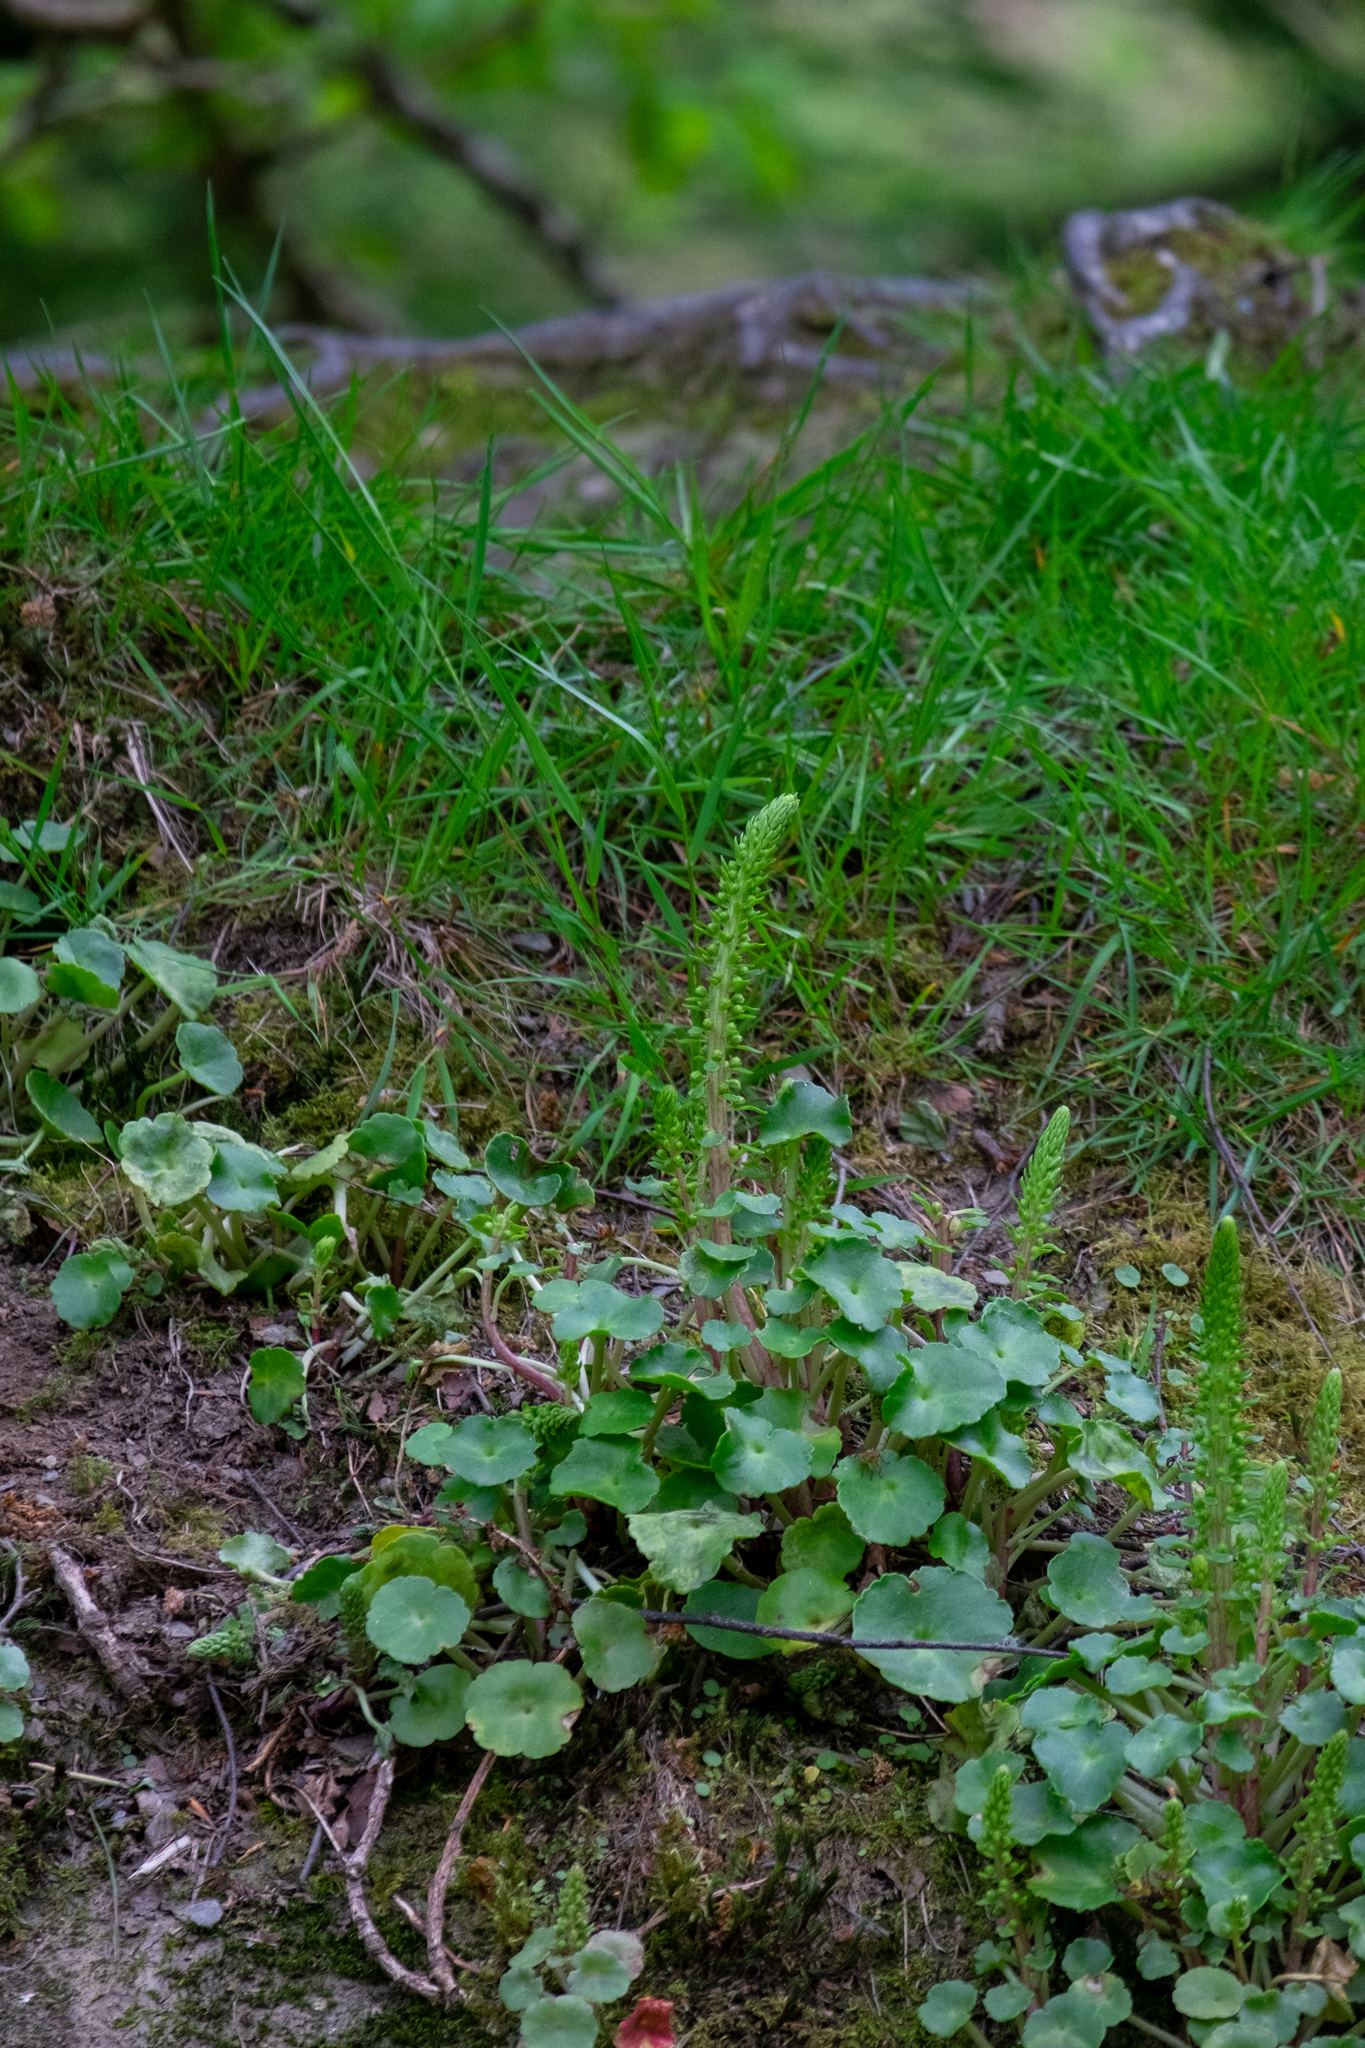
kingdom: Plantae
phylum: Tracheophyta
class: Magnoliopsida
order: Saxifragales
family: Crassulaceae
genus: Umbilicus
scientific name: Umbilicus rupestris
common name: Navelwort
